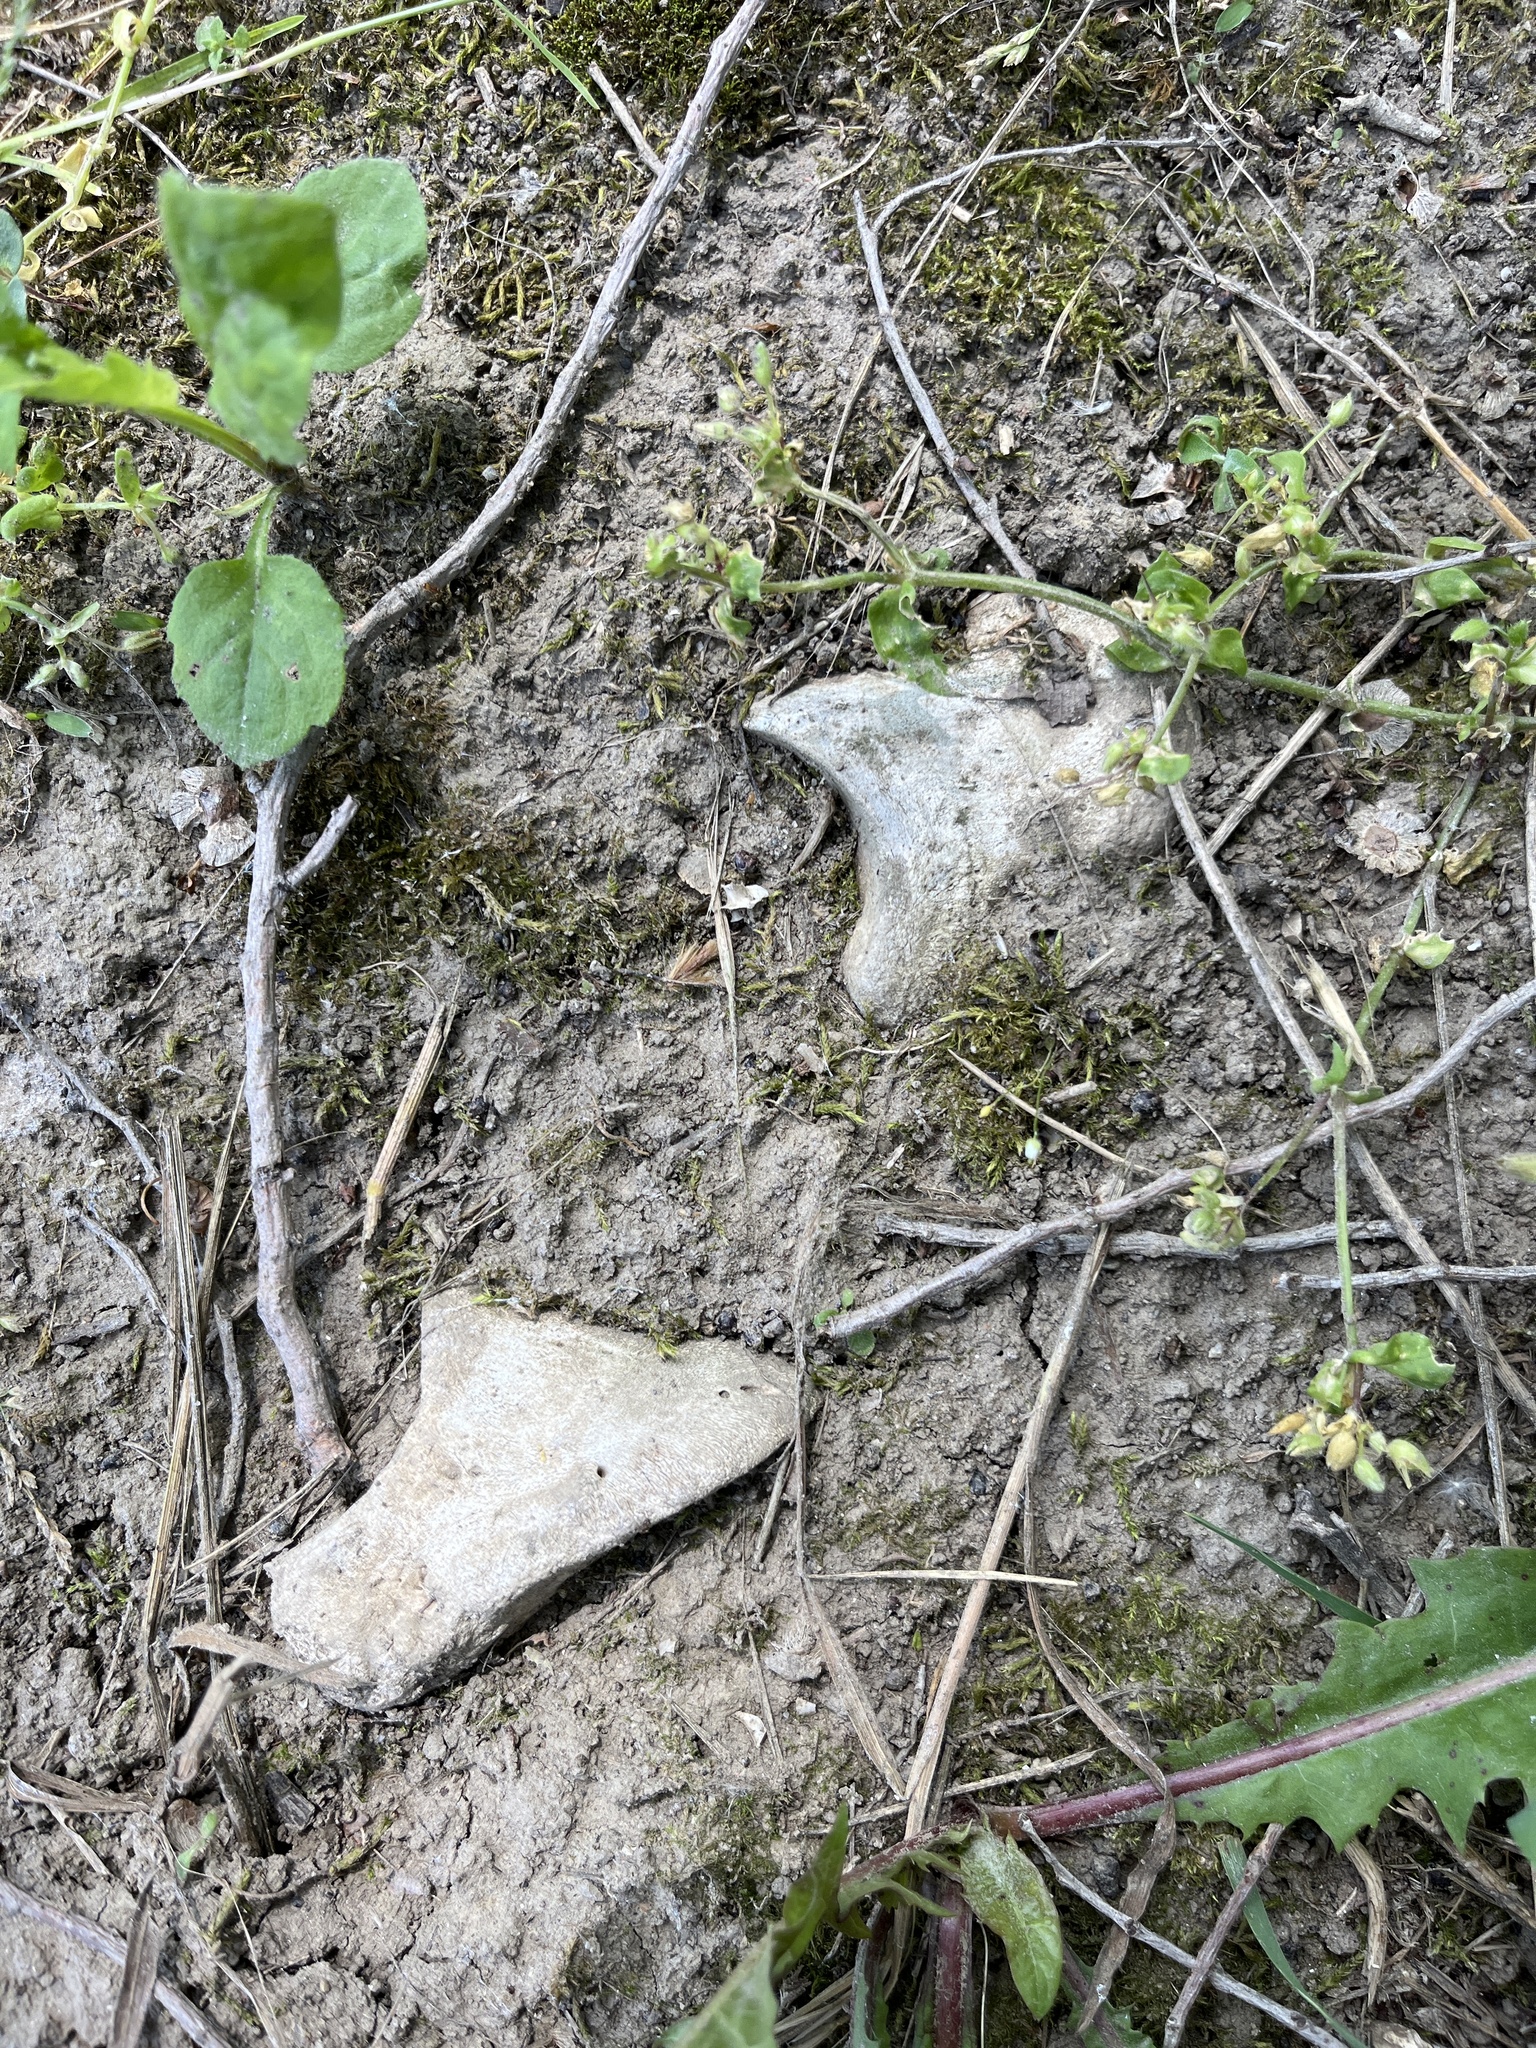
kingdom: Animalia
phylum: Chordata
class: Mammalia
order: Artiodactyla
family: Bovidae
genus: Bos
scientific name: Bos taurus
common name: Domesticated cattle
